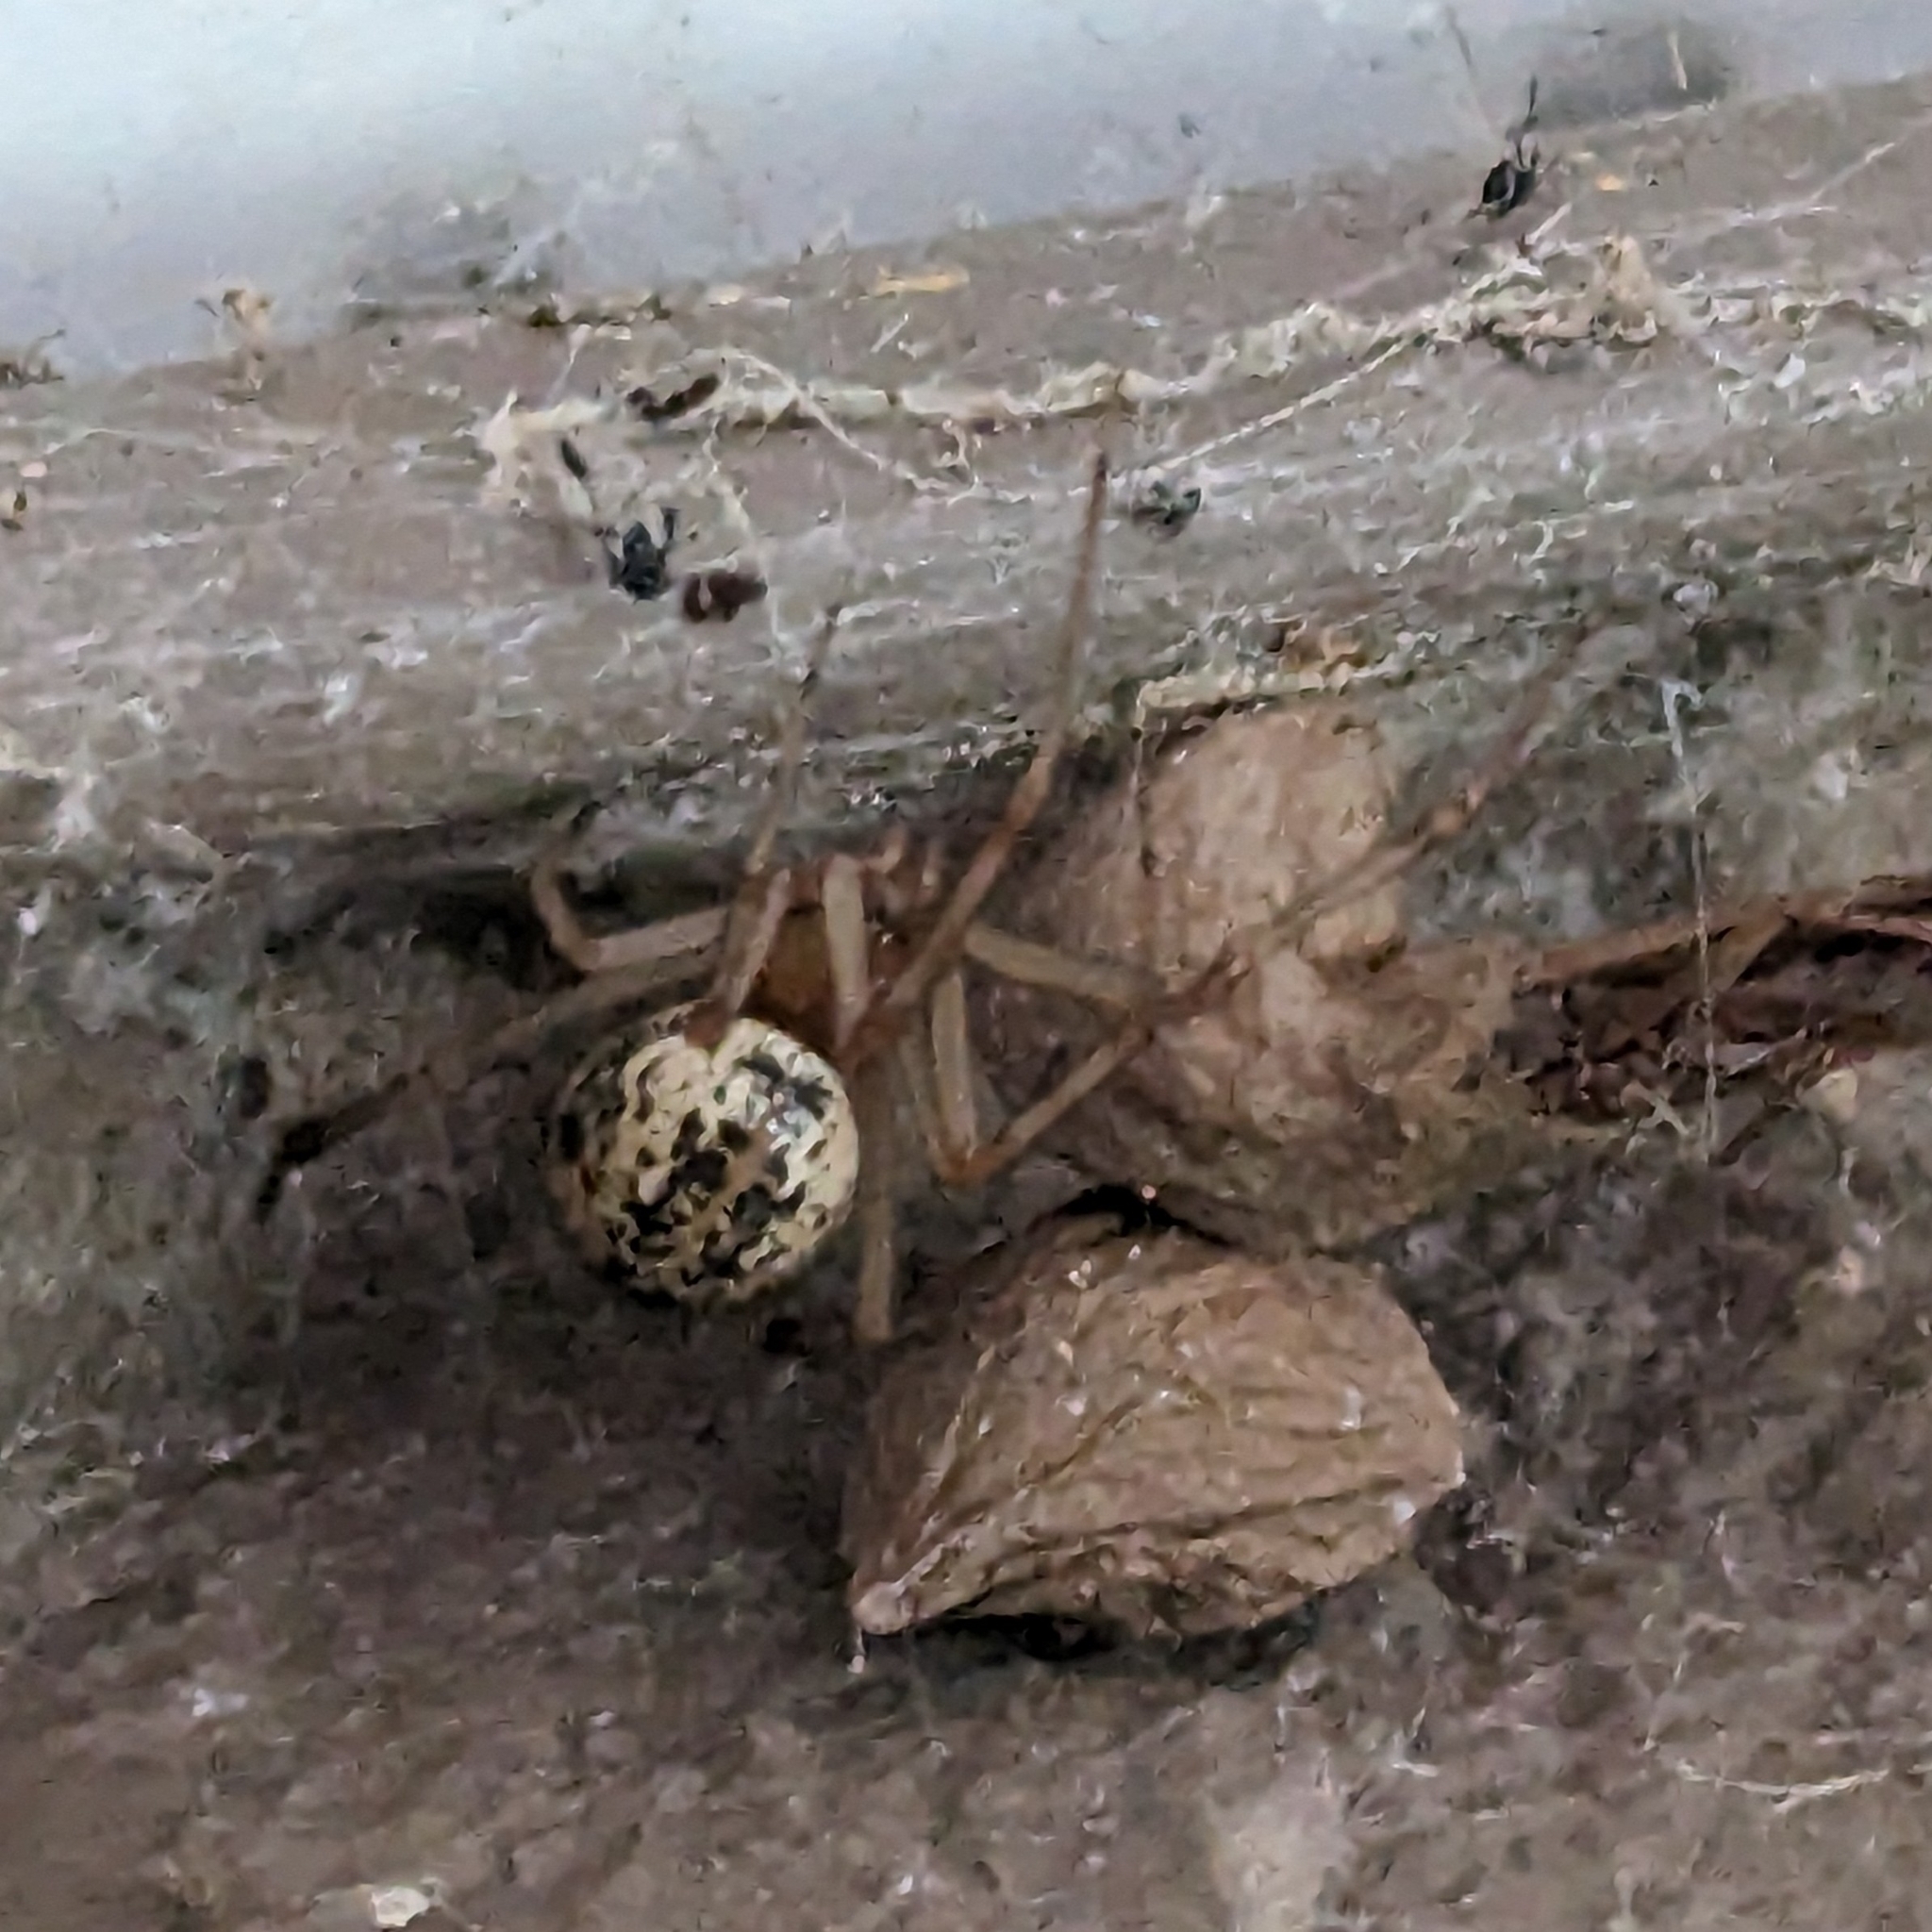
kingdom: Animalia
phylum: Arthropoda
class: Arachnida
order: Araneae
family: Theridiidae
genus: Parasteatoda
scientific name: Parasteatoda tepidariorum
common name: Common house spider
